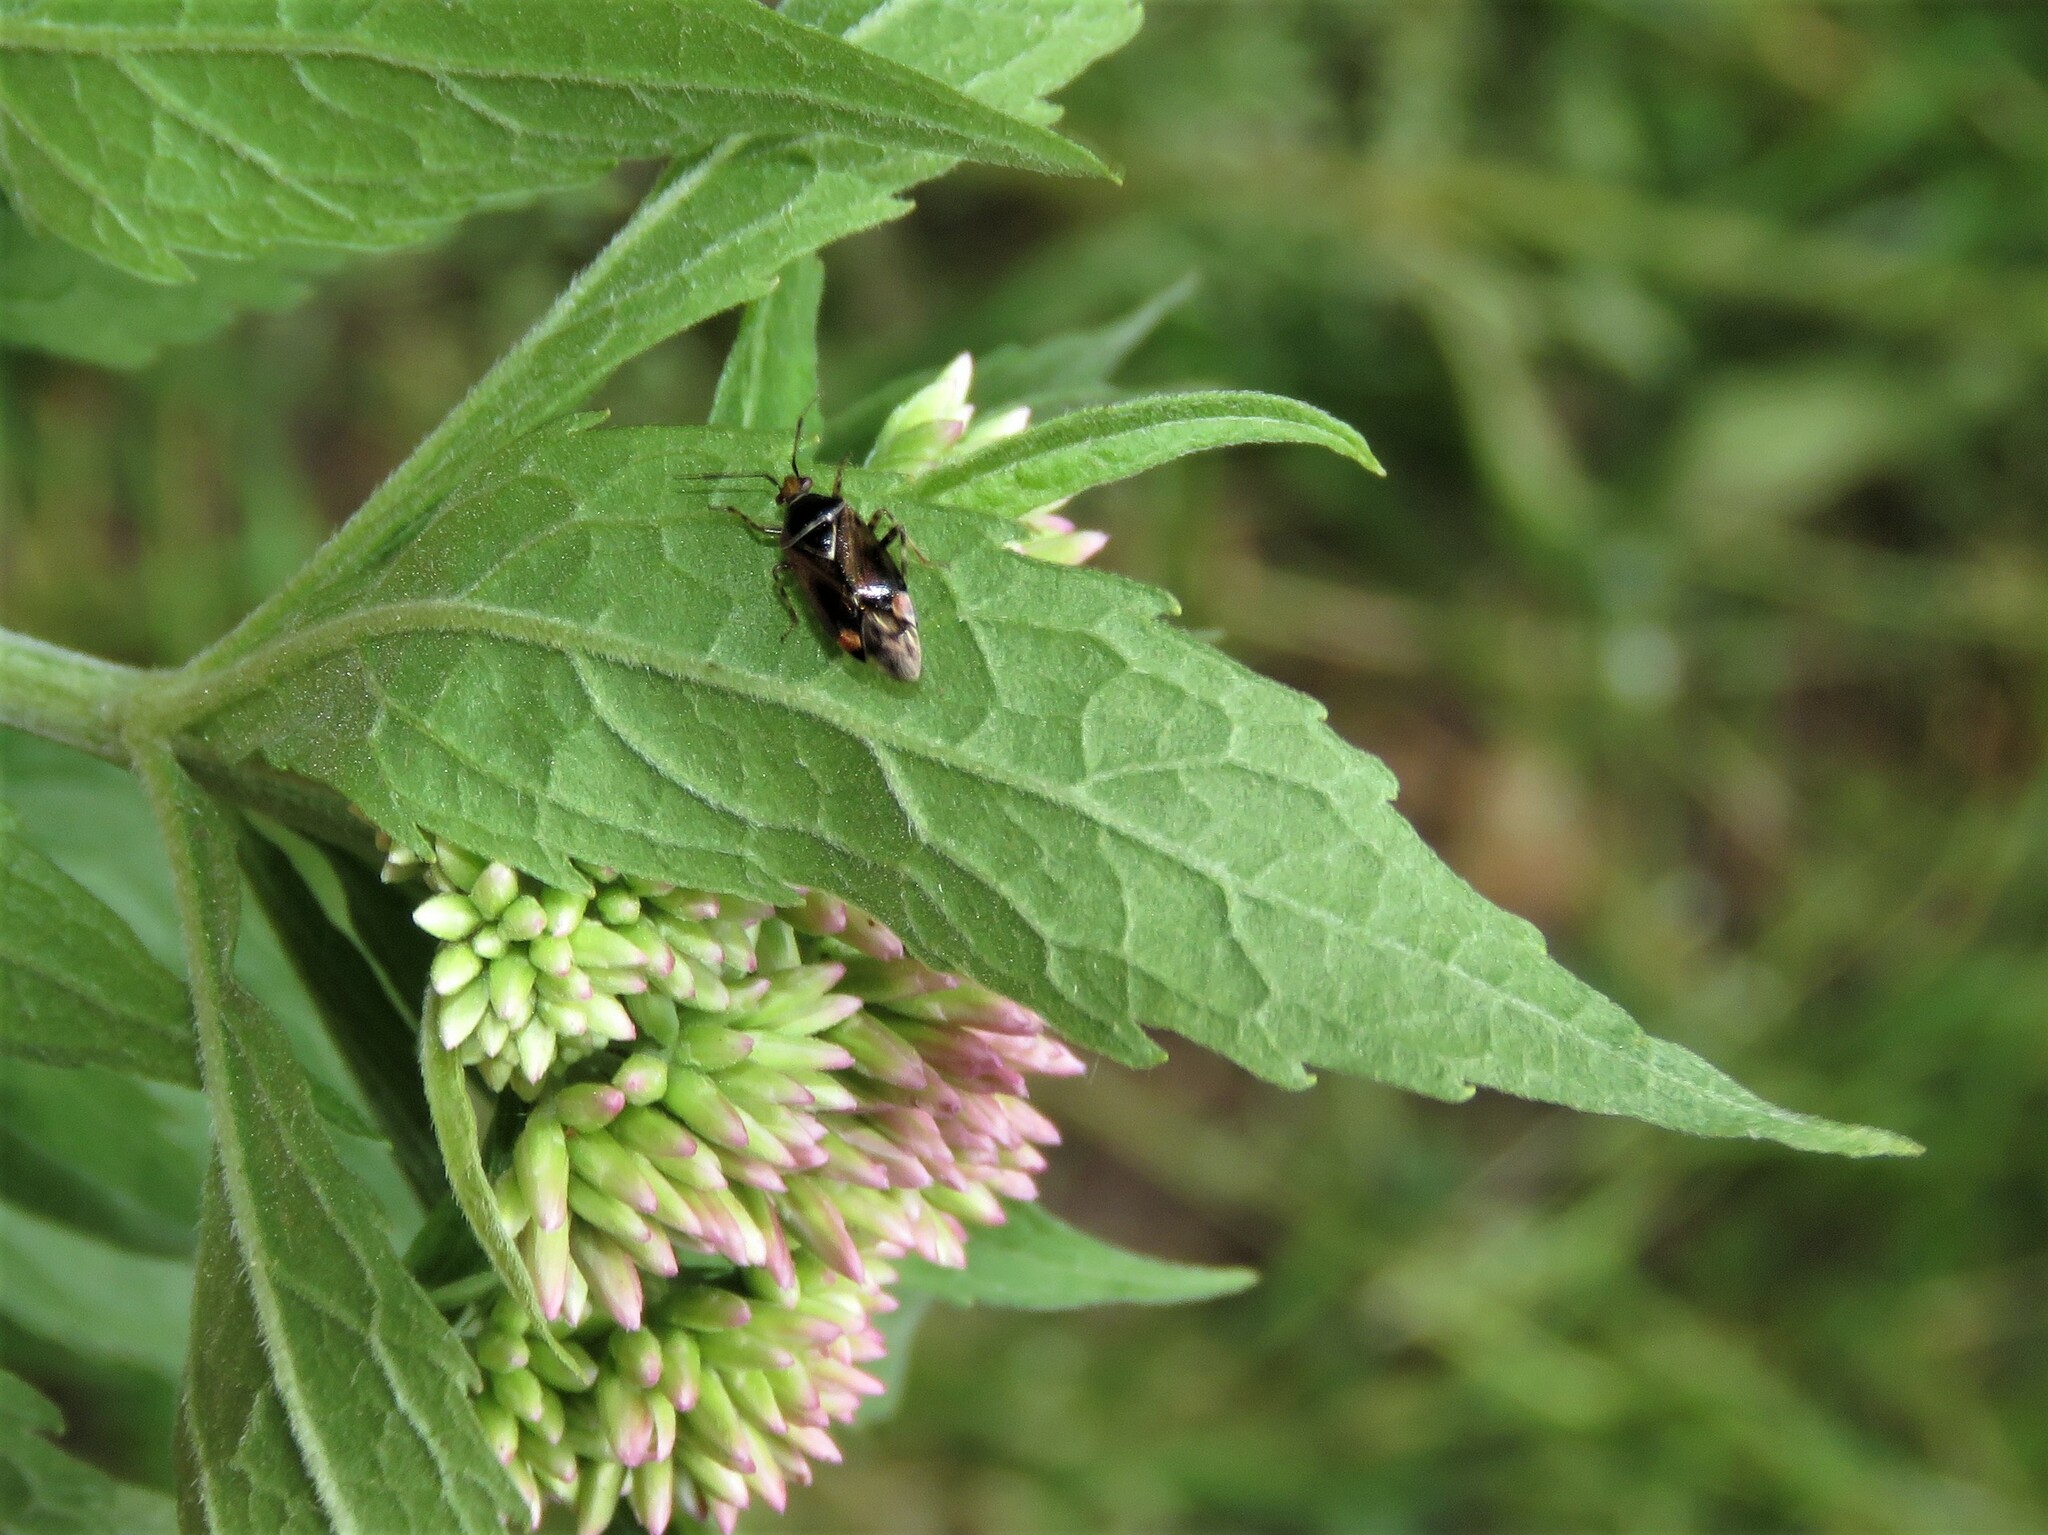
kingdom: Animalia
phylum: Arthropoda
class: Insecta
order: Hemiptera
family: Miridae
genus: Deraeocoris
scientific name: Deraeocoris flavilinea
